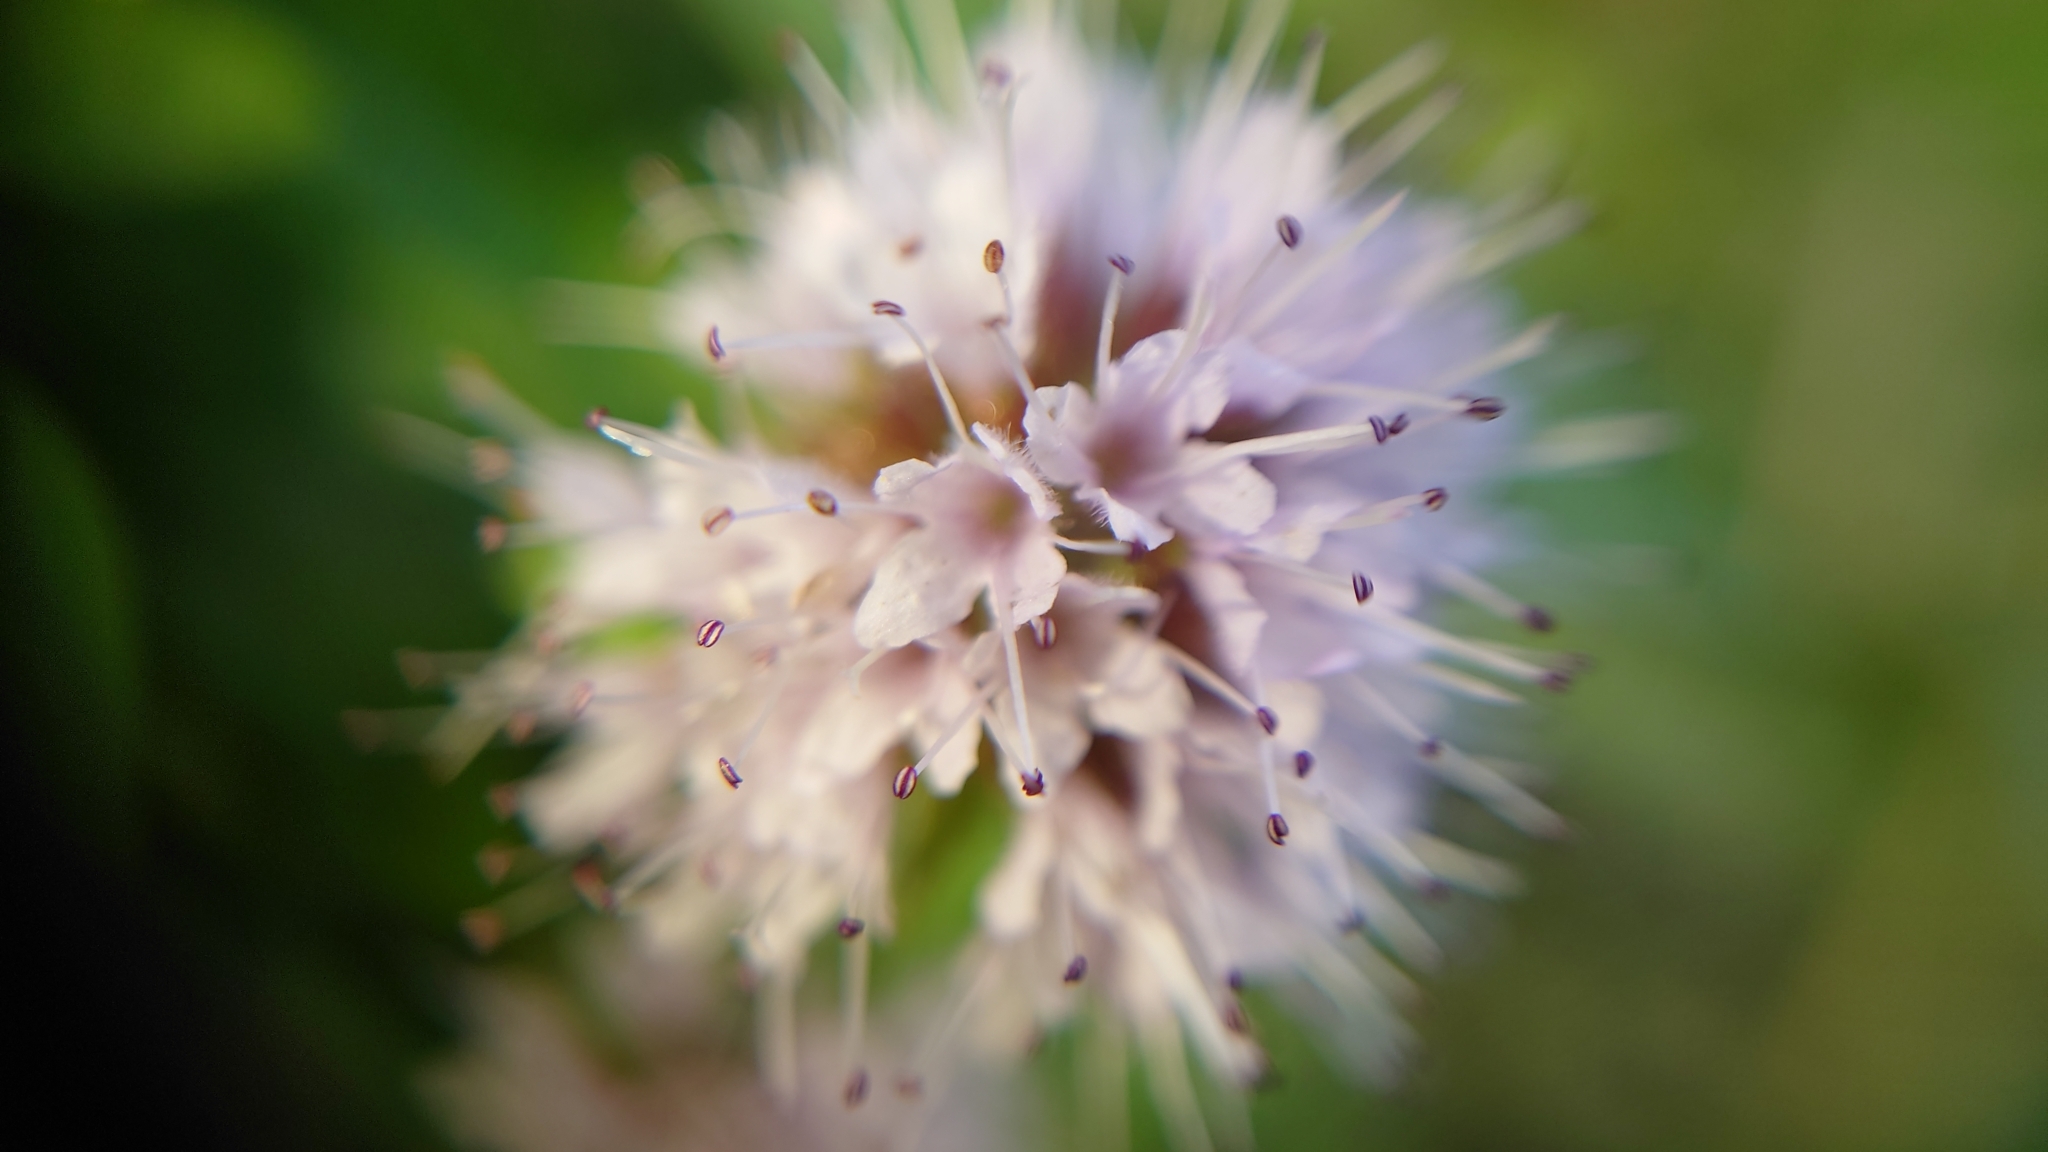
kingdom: Plantae
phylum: Tracheophyta
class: Magnoliopsida
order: Lamiales
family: Lamiaceae
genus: Mentha
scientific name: Mentha aquatica
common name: Water mint
